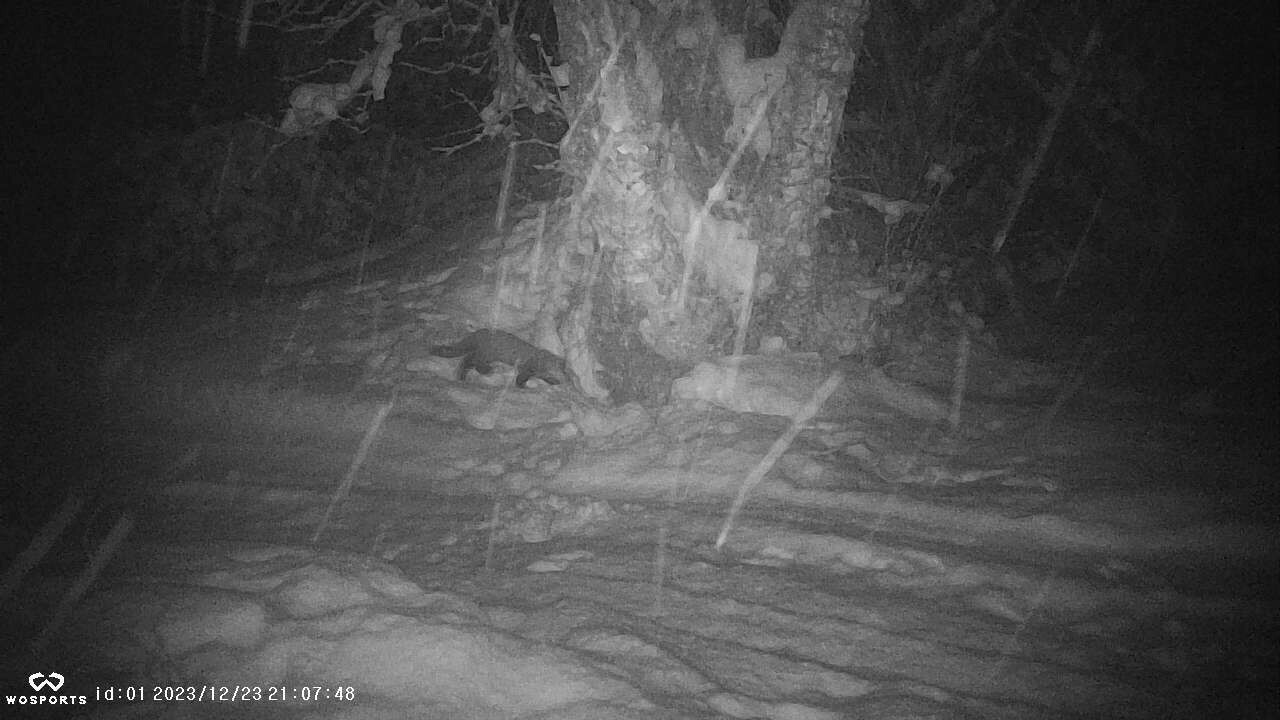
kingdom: Animalia
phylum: Chordata
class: Mammalia
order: Carnivora
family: Mustelidae
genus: Martes
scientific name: Martes americana
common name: American marten
